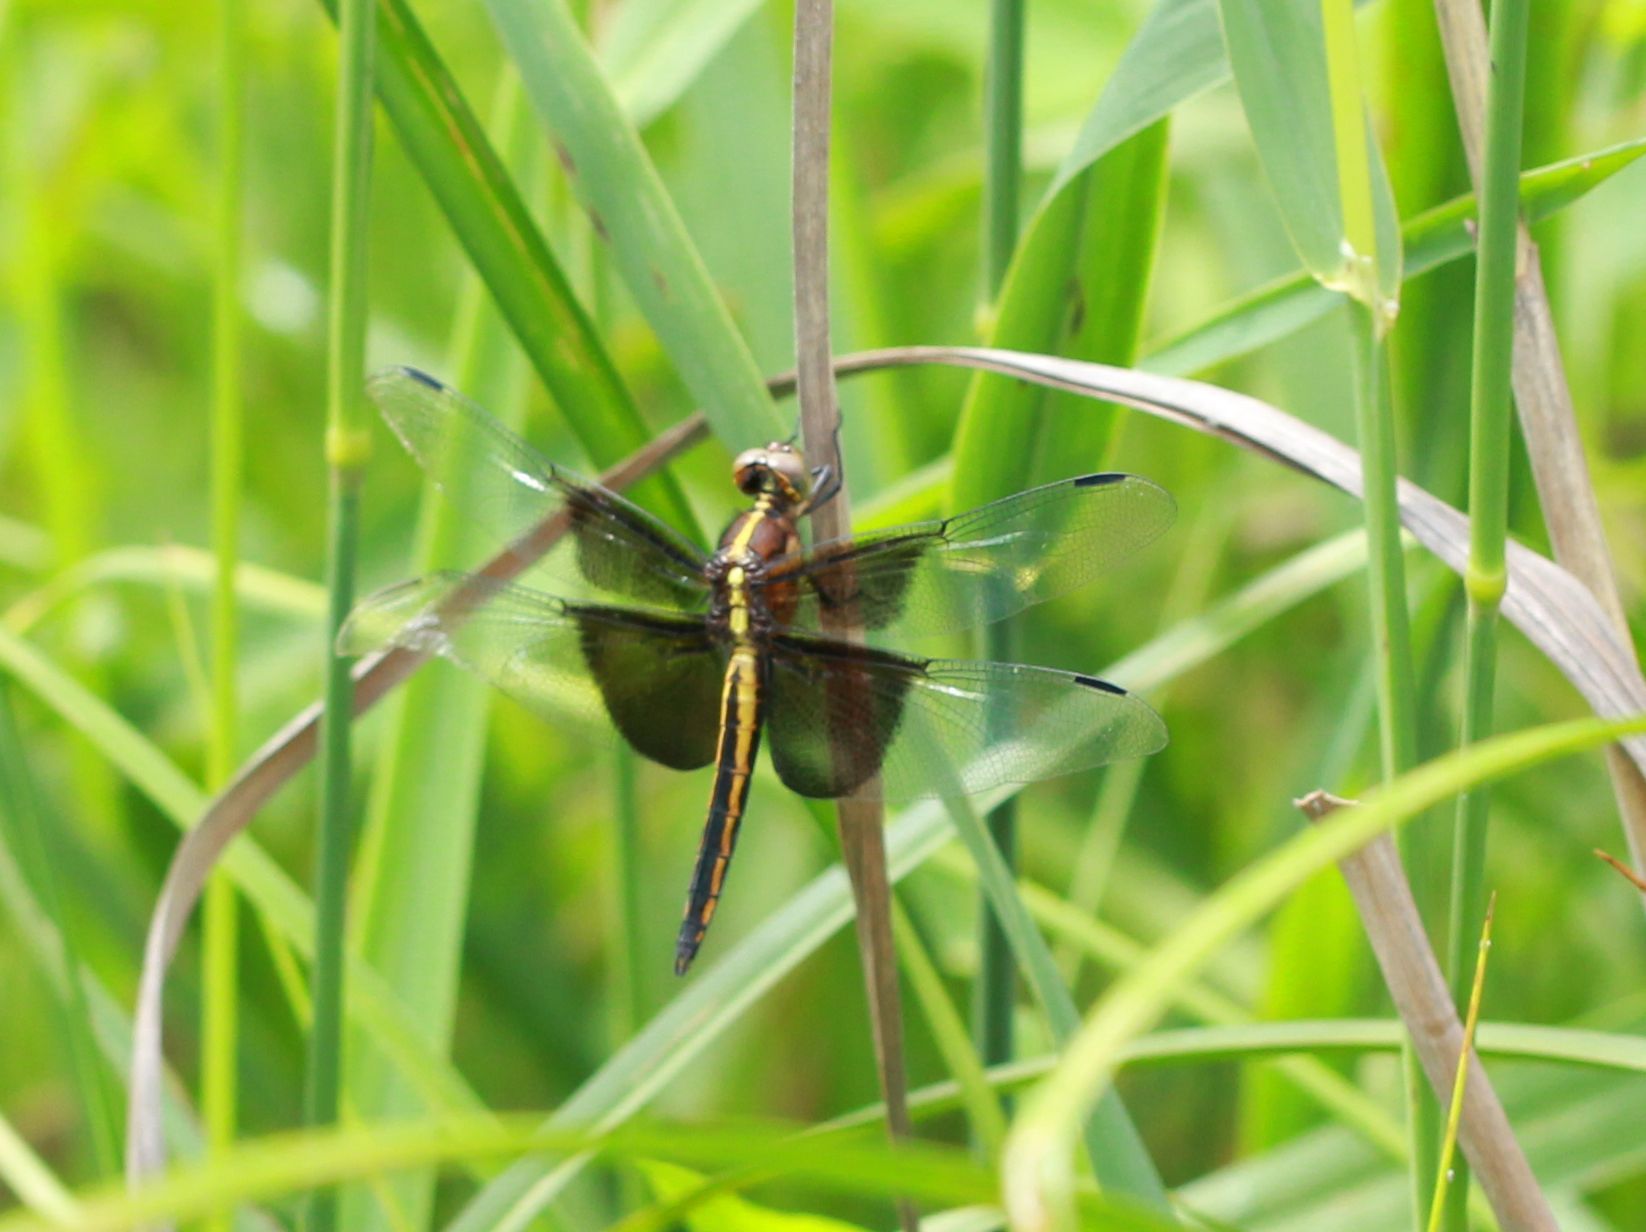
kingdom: Animalia
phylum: Arthropoda
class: Insecta
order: Odonata
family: Libellulidae
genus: Libellula
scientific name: Libellula luctuosa
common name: Widow skimmer
